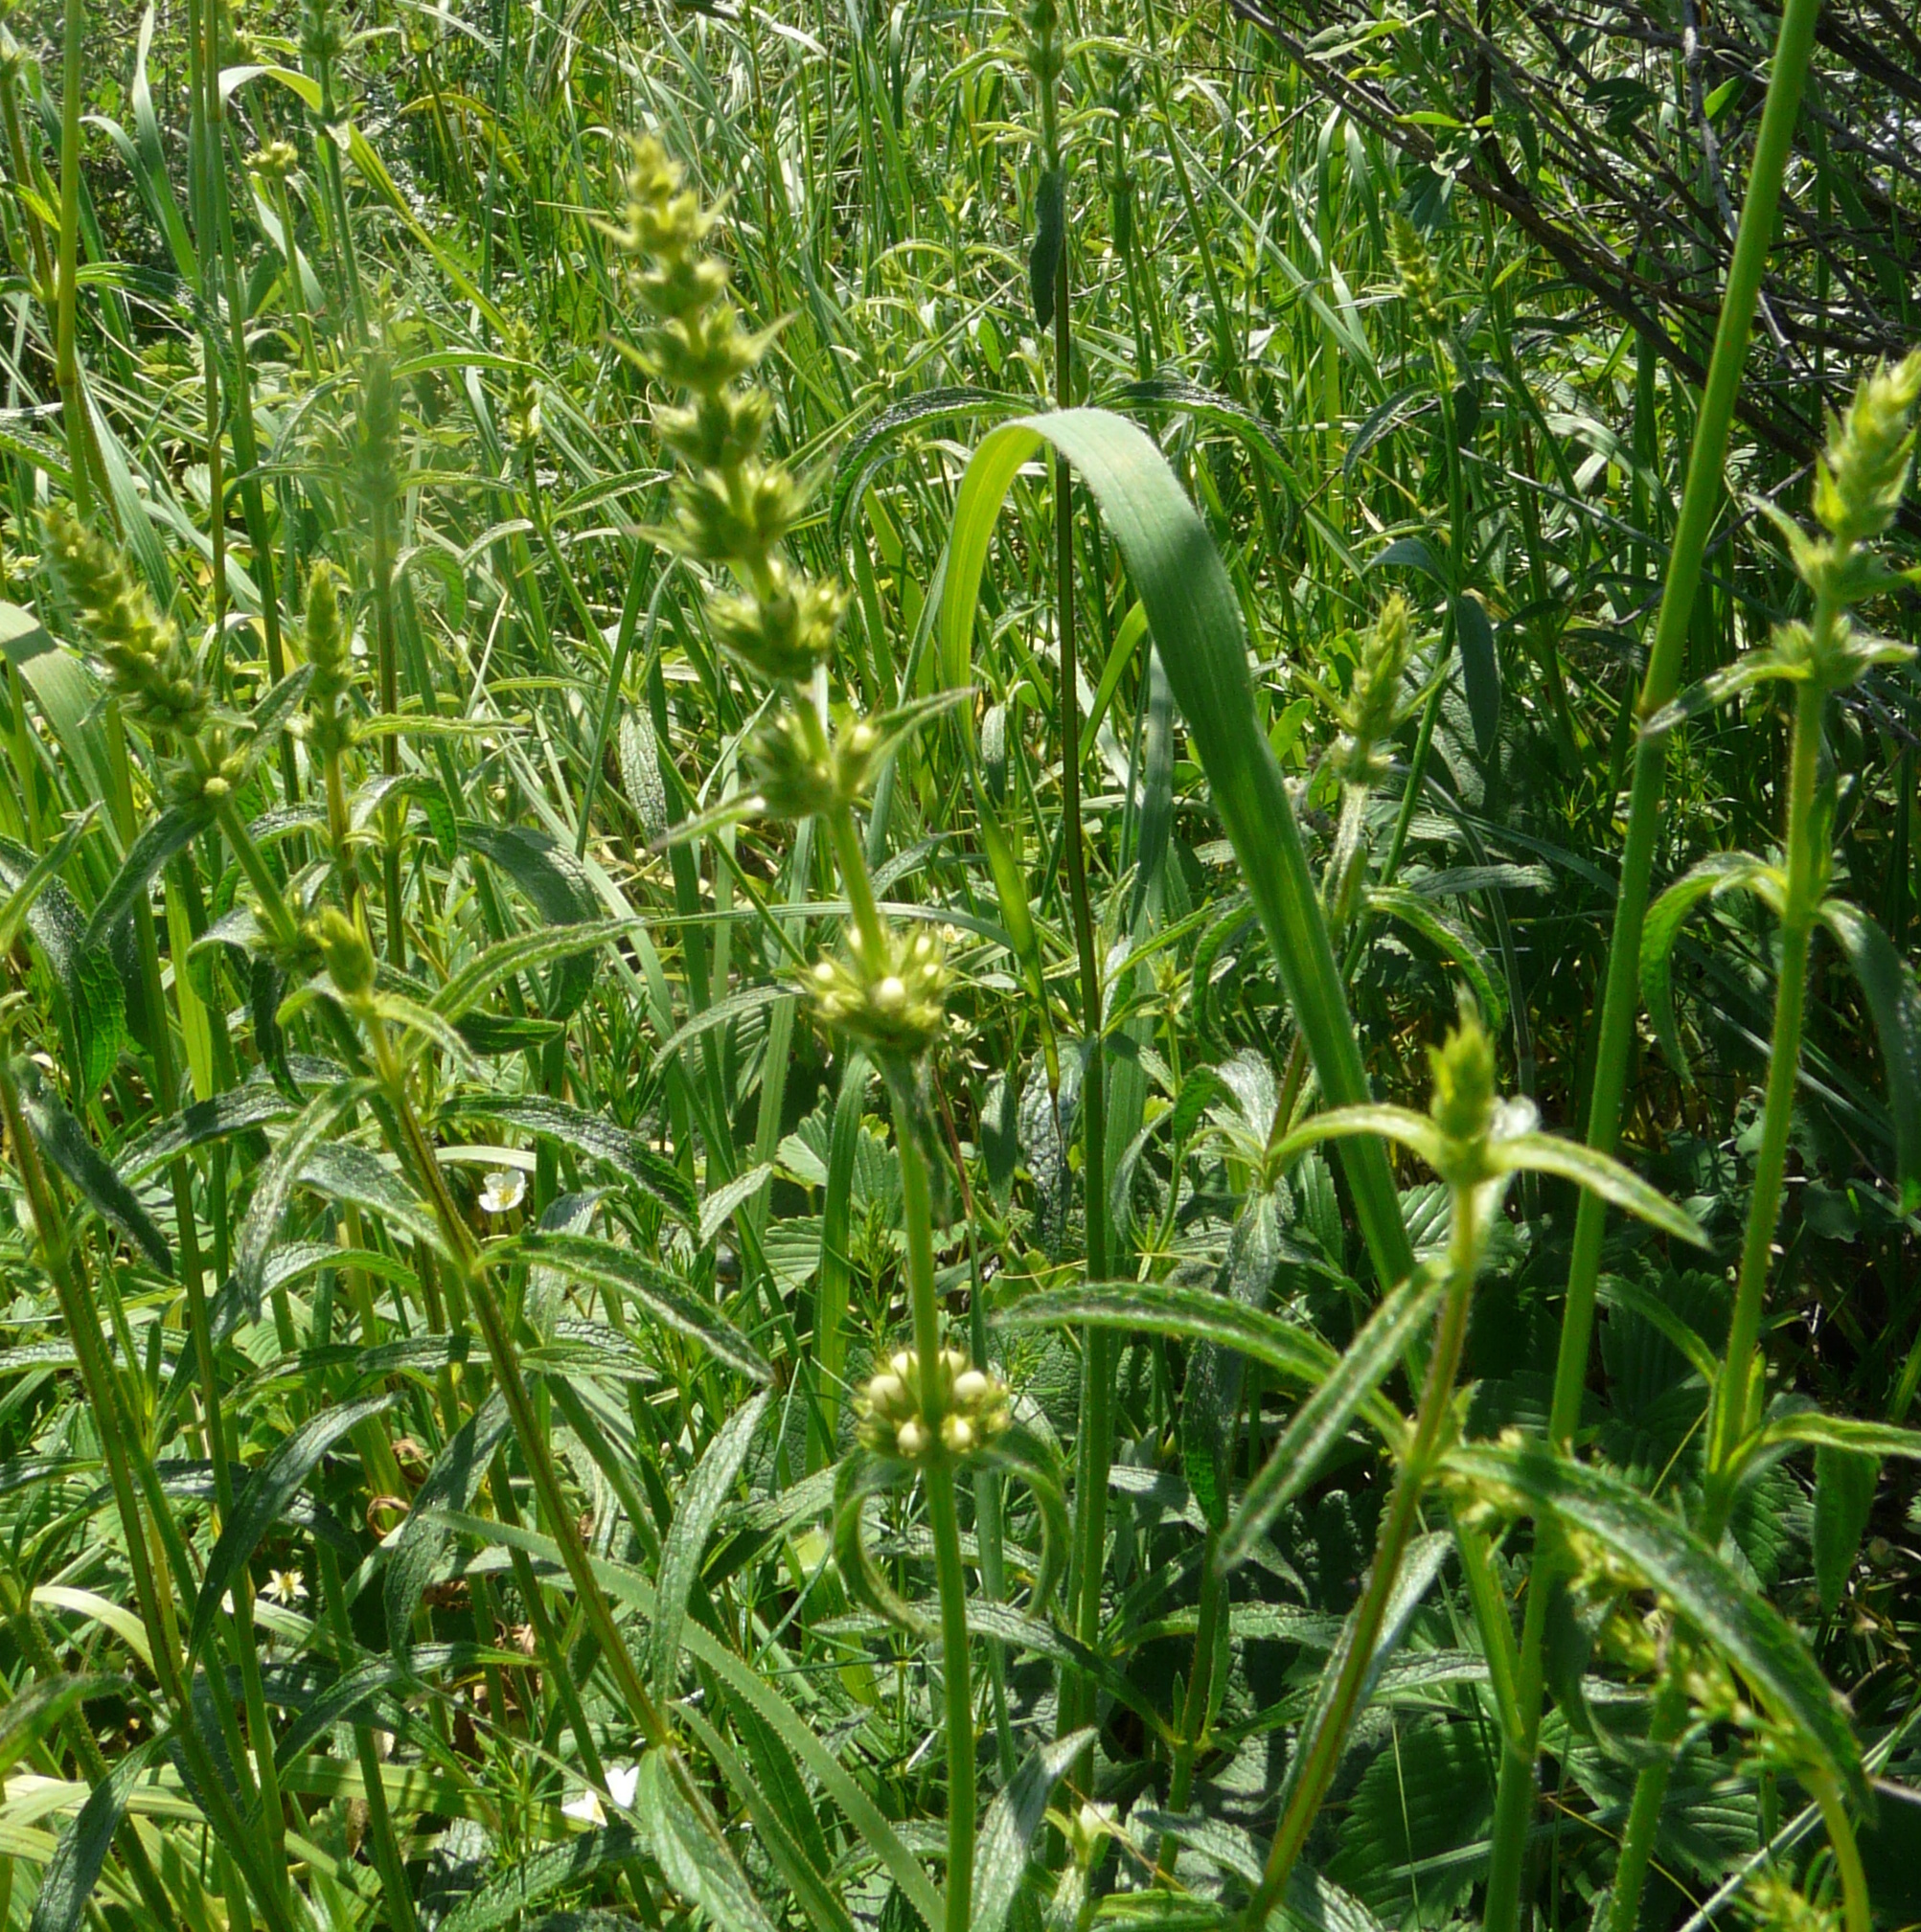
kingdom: Plantae
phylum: Tracheophyta
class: Magnoliopsida
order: Lamiales
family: Lamiaceae
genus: Stachys
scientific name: Stachys recta
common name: Perennial yellow-woundwort
